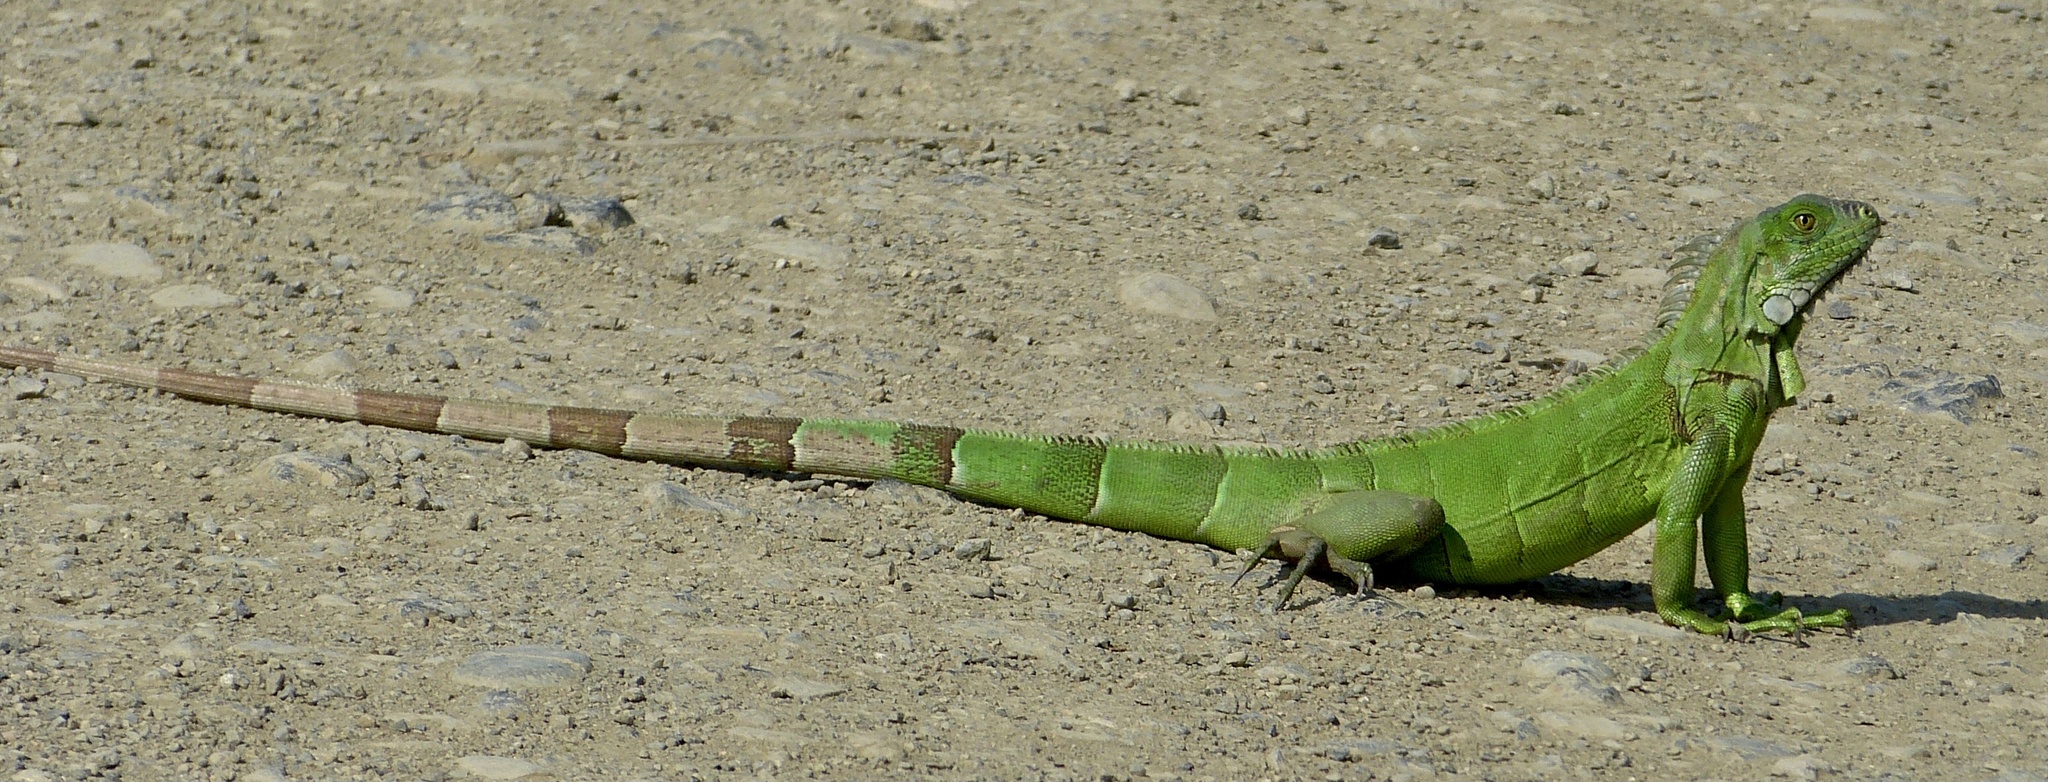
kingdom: Animalia
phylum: Chordata
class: Squamata
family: Iguanidae
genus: Iguana
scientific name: Iguana iguana
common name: Green iguana
